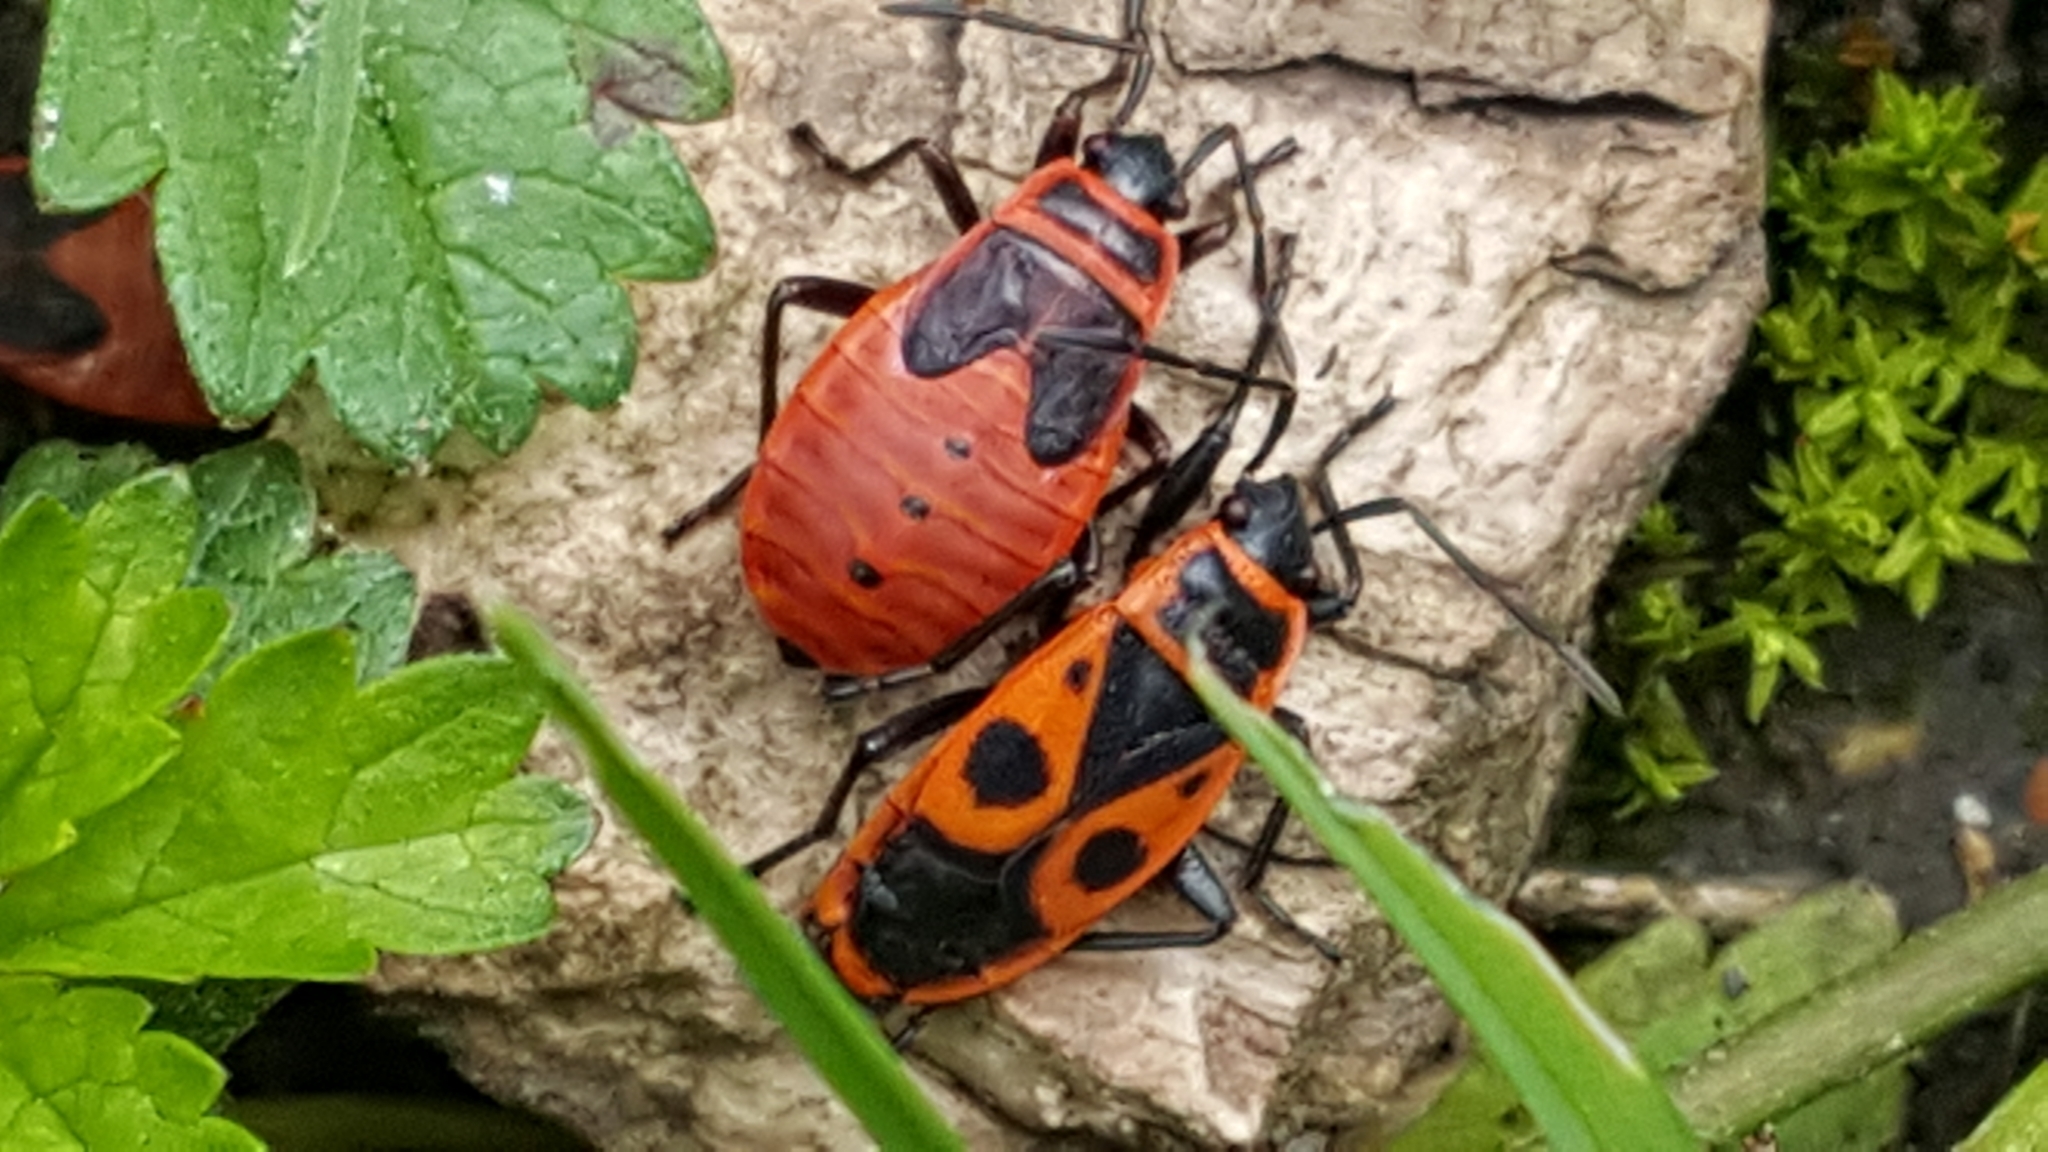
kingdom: Animalia
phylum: Arthropoda
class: Insecta
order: Hemiptera
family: Pyrrhocoridae
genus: Pyrrhocoris
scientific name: Pyrrhocoris apterus
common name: Firebug
